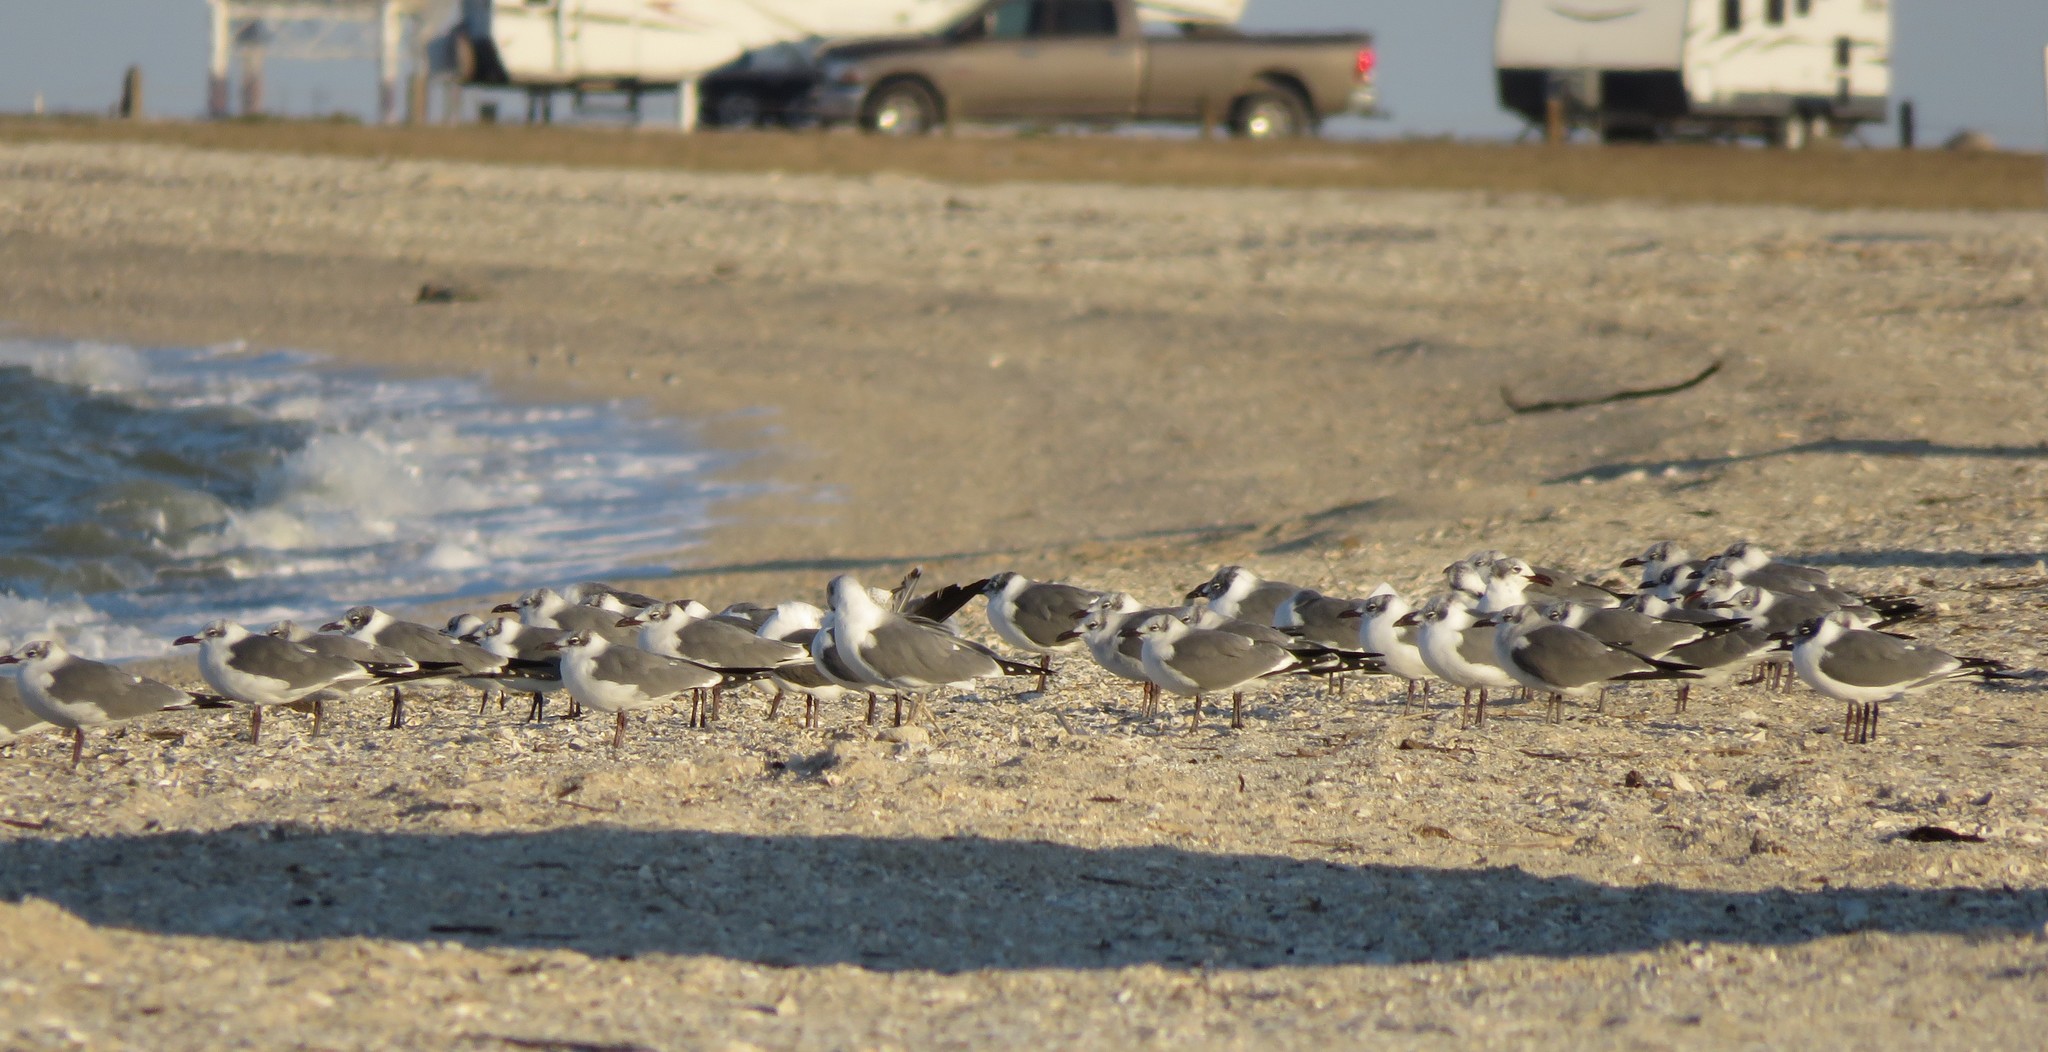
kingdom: Animalia
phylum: Chordata
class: Aves
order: Charadriiformes
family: Laridae
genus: Leucophaeus
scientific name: Leucophaeus atricilla
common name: Laughing gull
